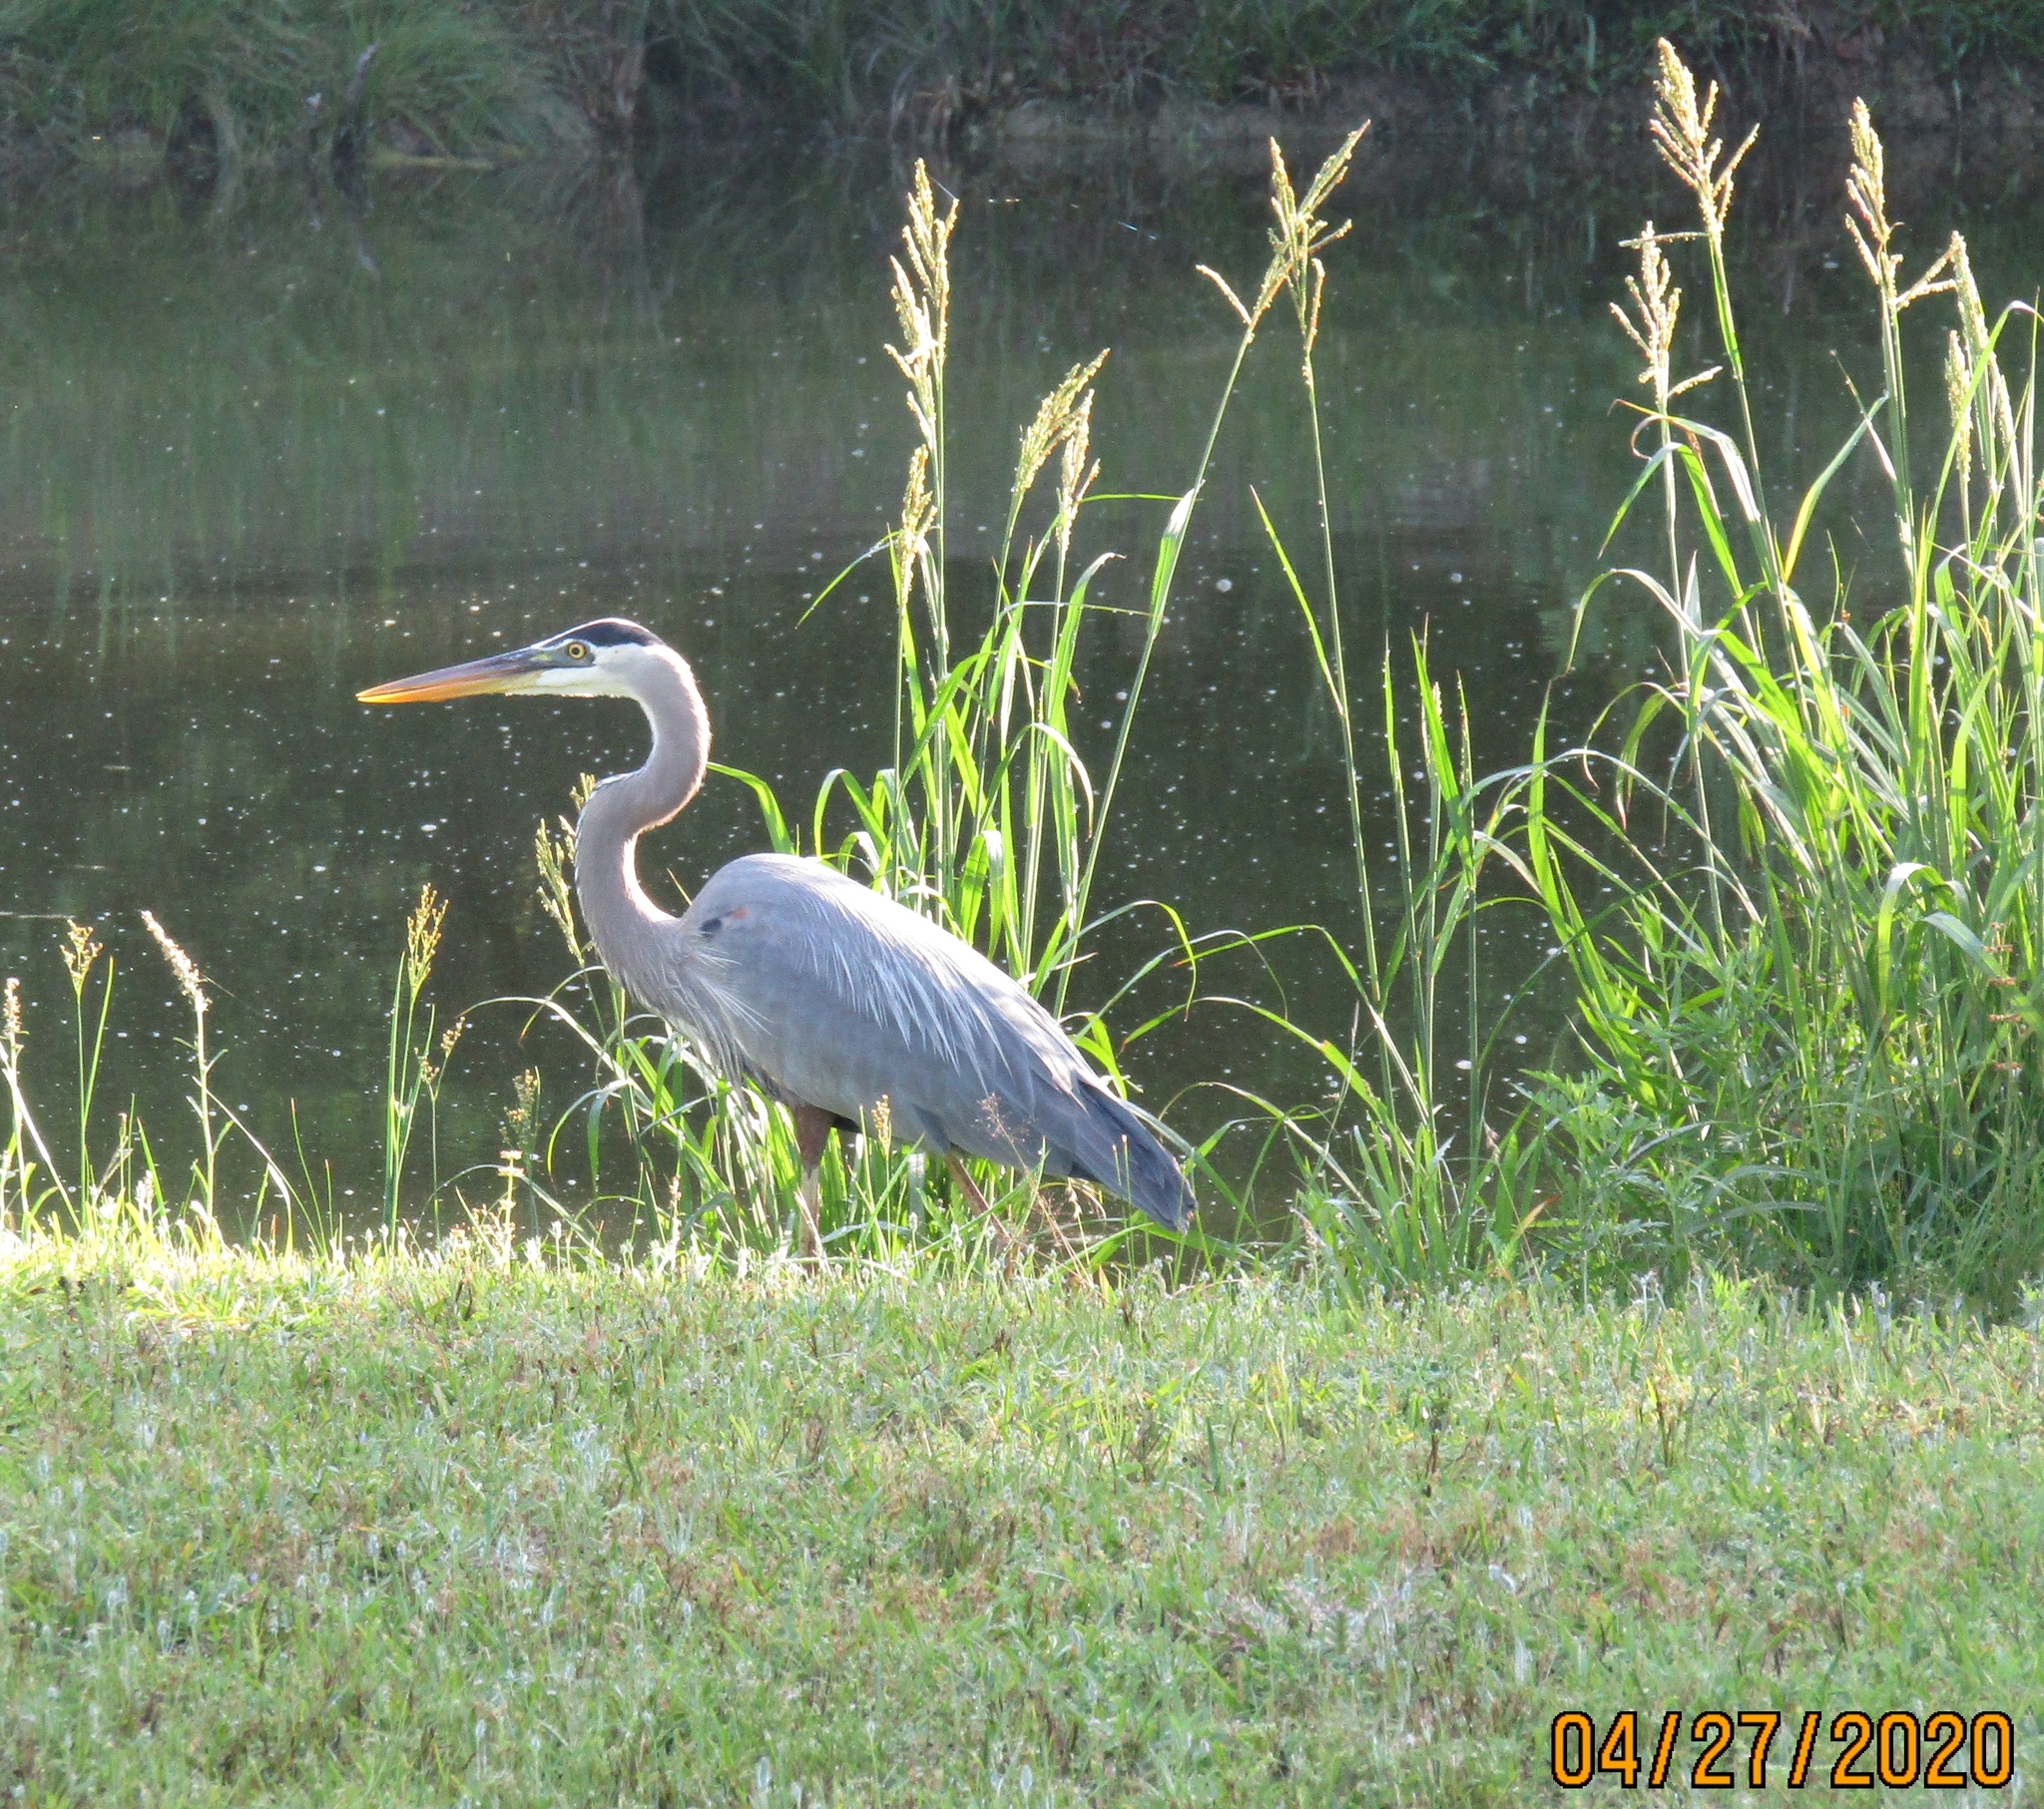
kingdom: Animalia
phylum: Chordata
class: Aves
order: Pelecaniformes
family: Ardeidae
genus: Ardea
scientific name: Ardea herodias
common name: Great blue heron
